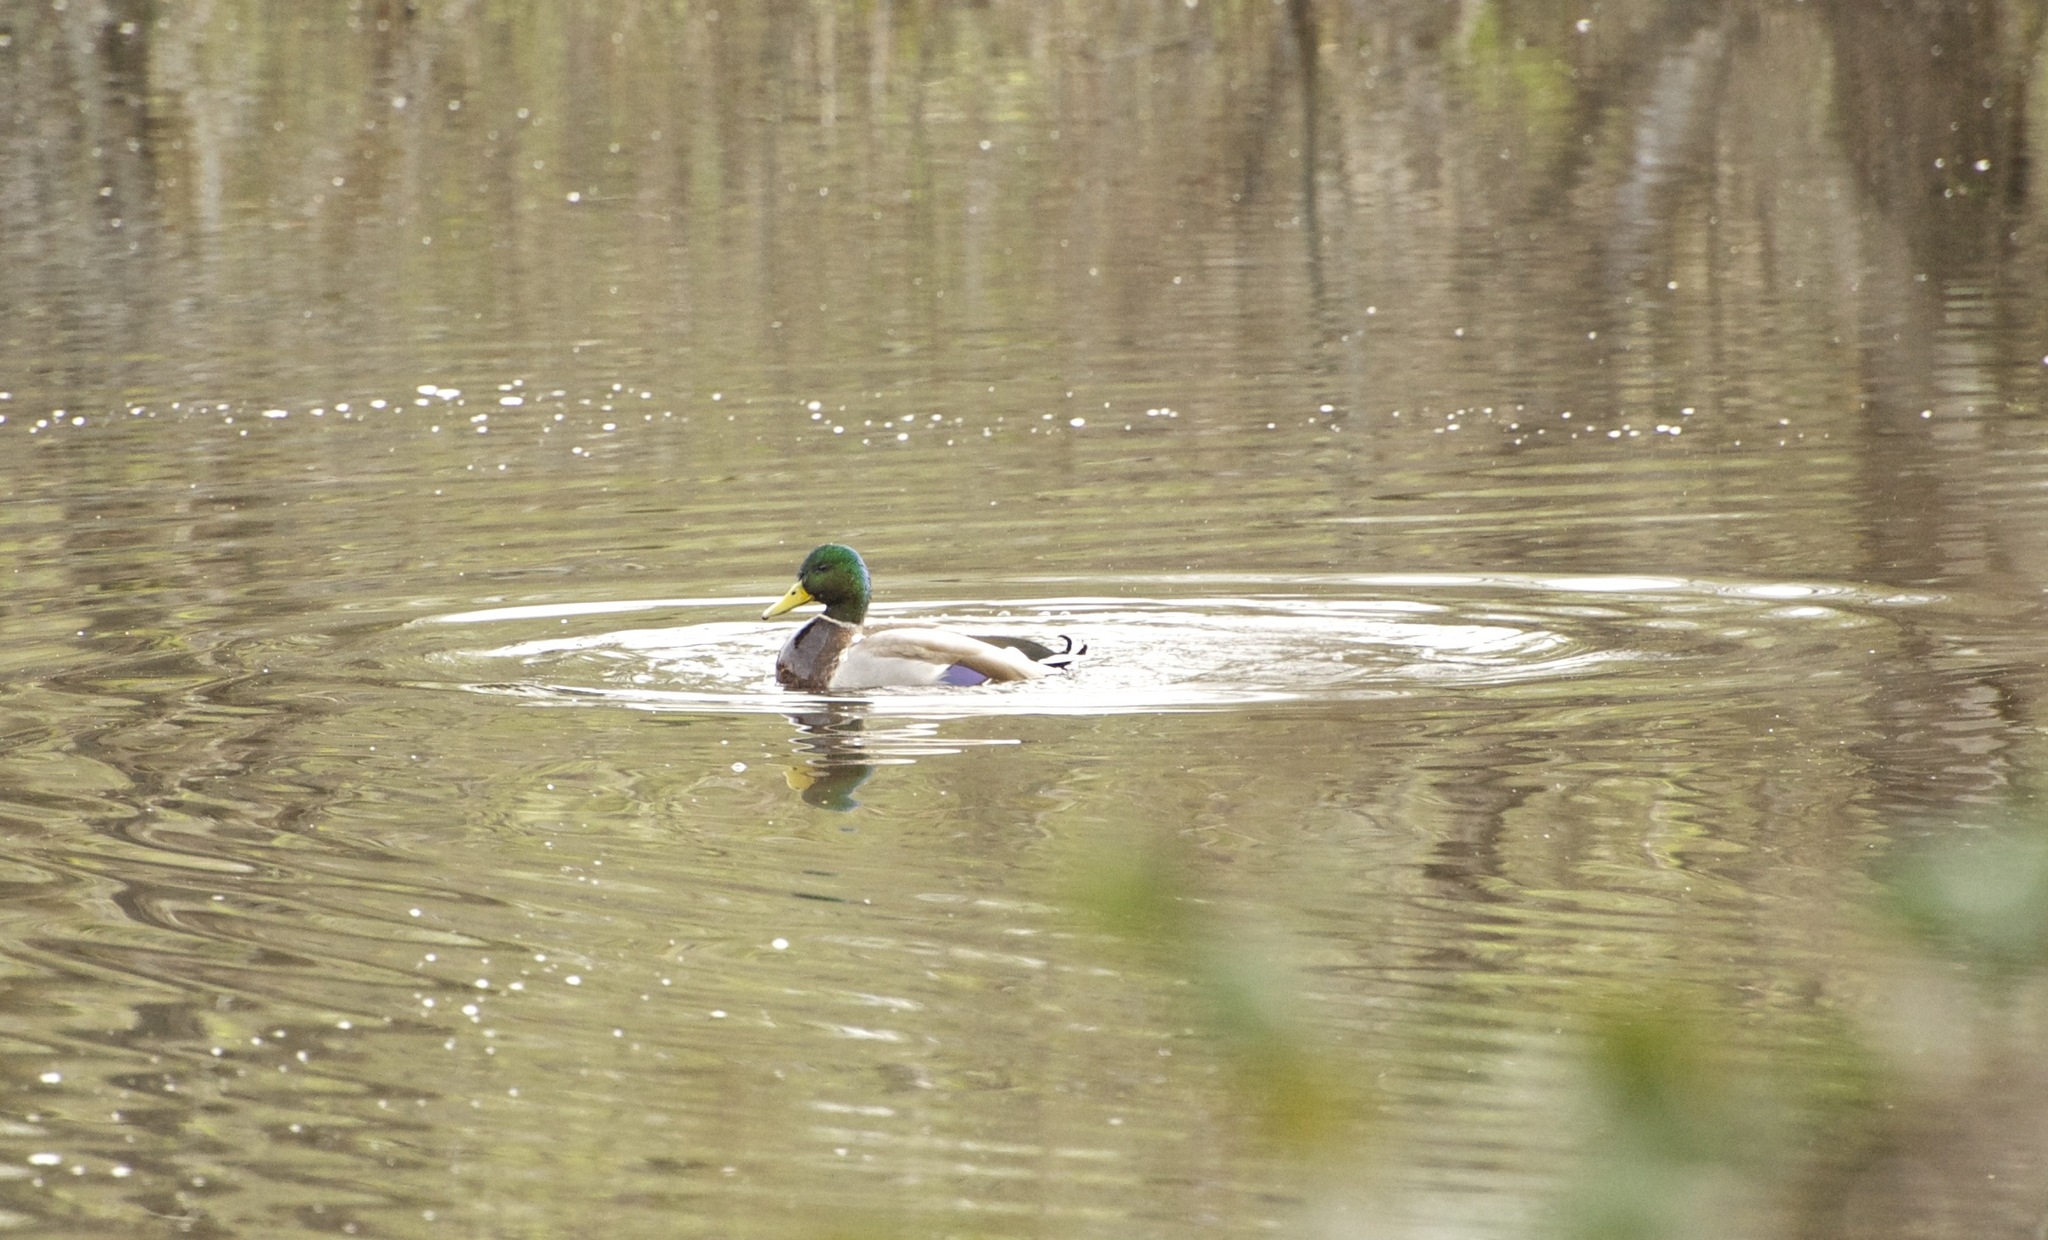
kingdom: Animalia
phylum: Chordata
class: Aves
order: Anseriformes
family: Anatidae
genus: Anas
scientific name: Anas platyrhynchos
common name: Mallard
